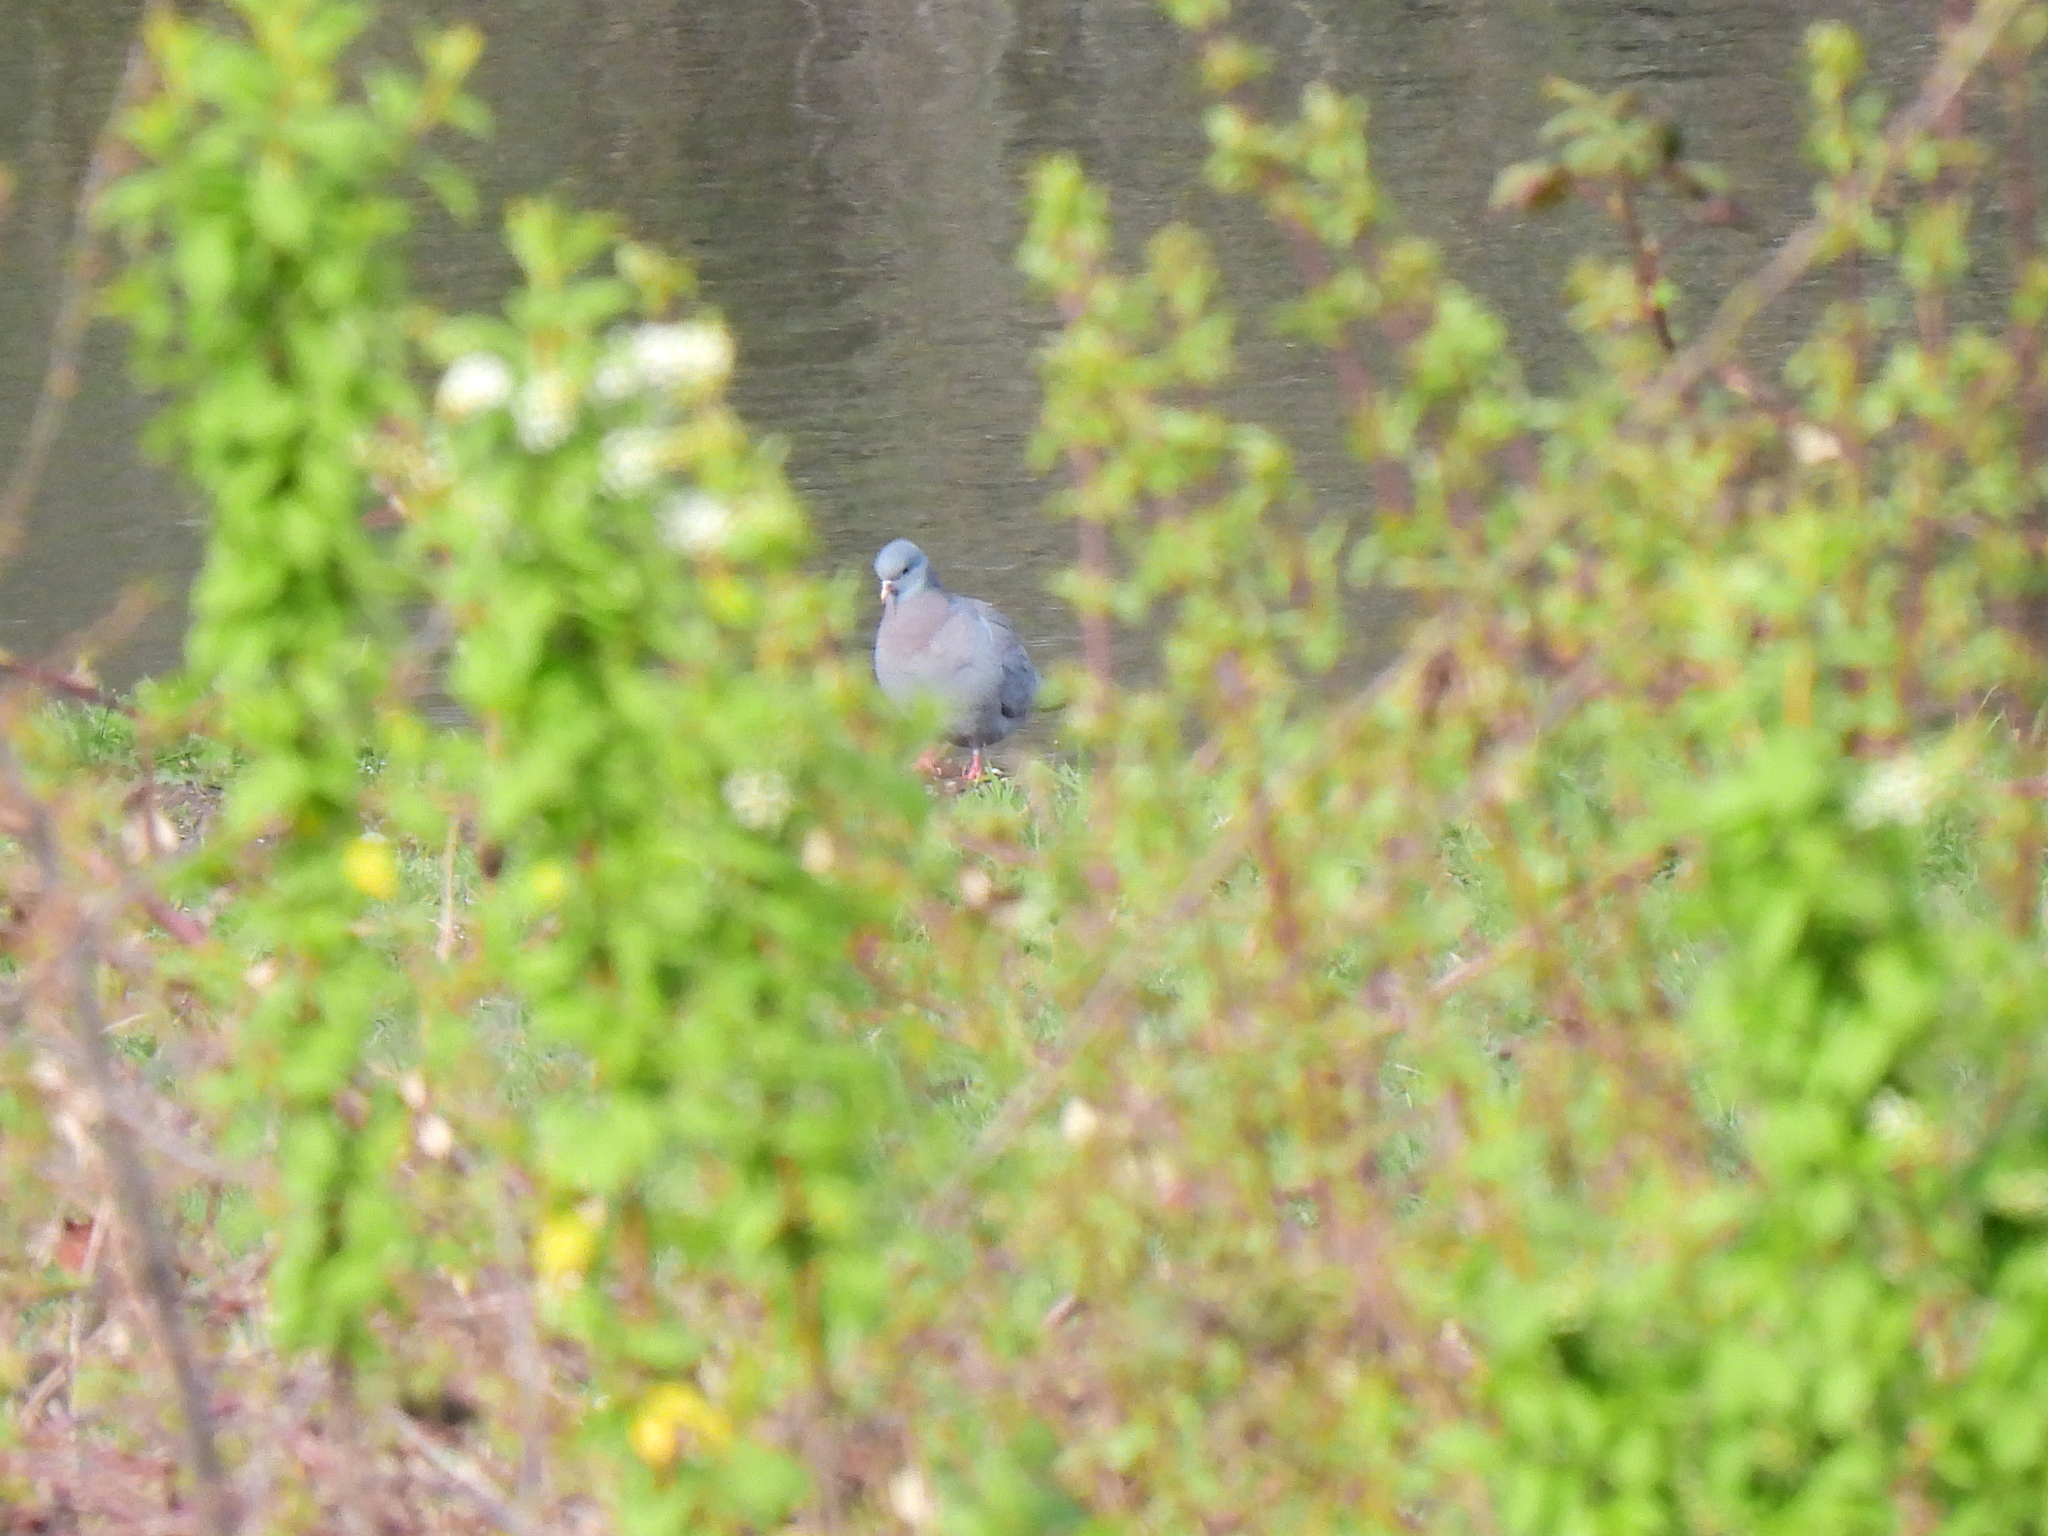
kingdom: Animalia
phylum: Chordata
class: Aves
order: Columbiformes
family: Columbidae
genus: Columba
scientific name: Columba oenas
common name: Stock dove
